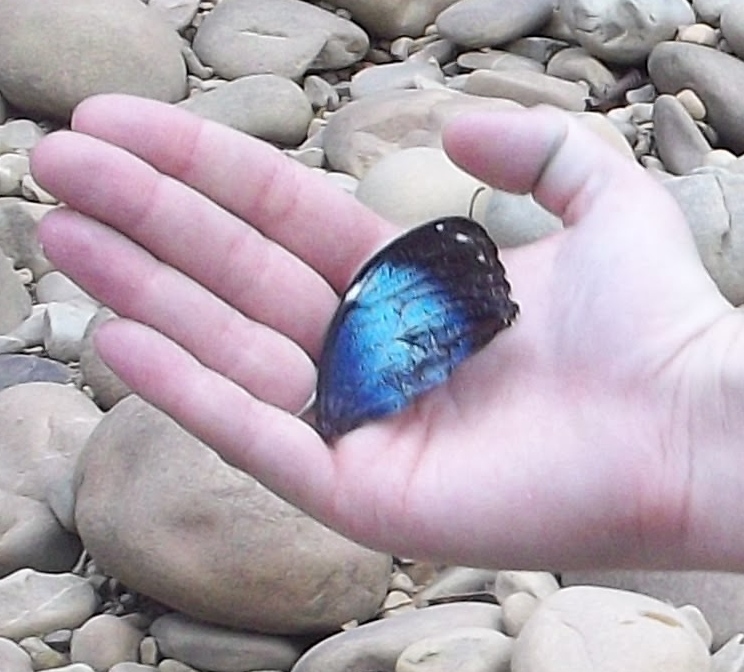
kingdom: Animalia
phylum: Arthropoda
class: Insecta
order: Lepidoptera
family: Nymphalidae
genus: Morpho
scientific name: Morpho helenor
